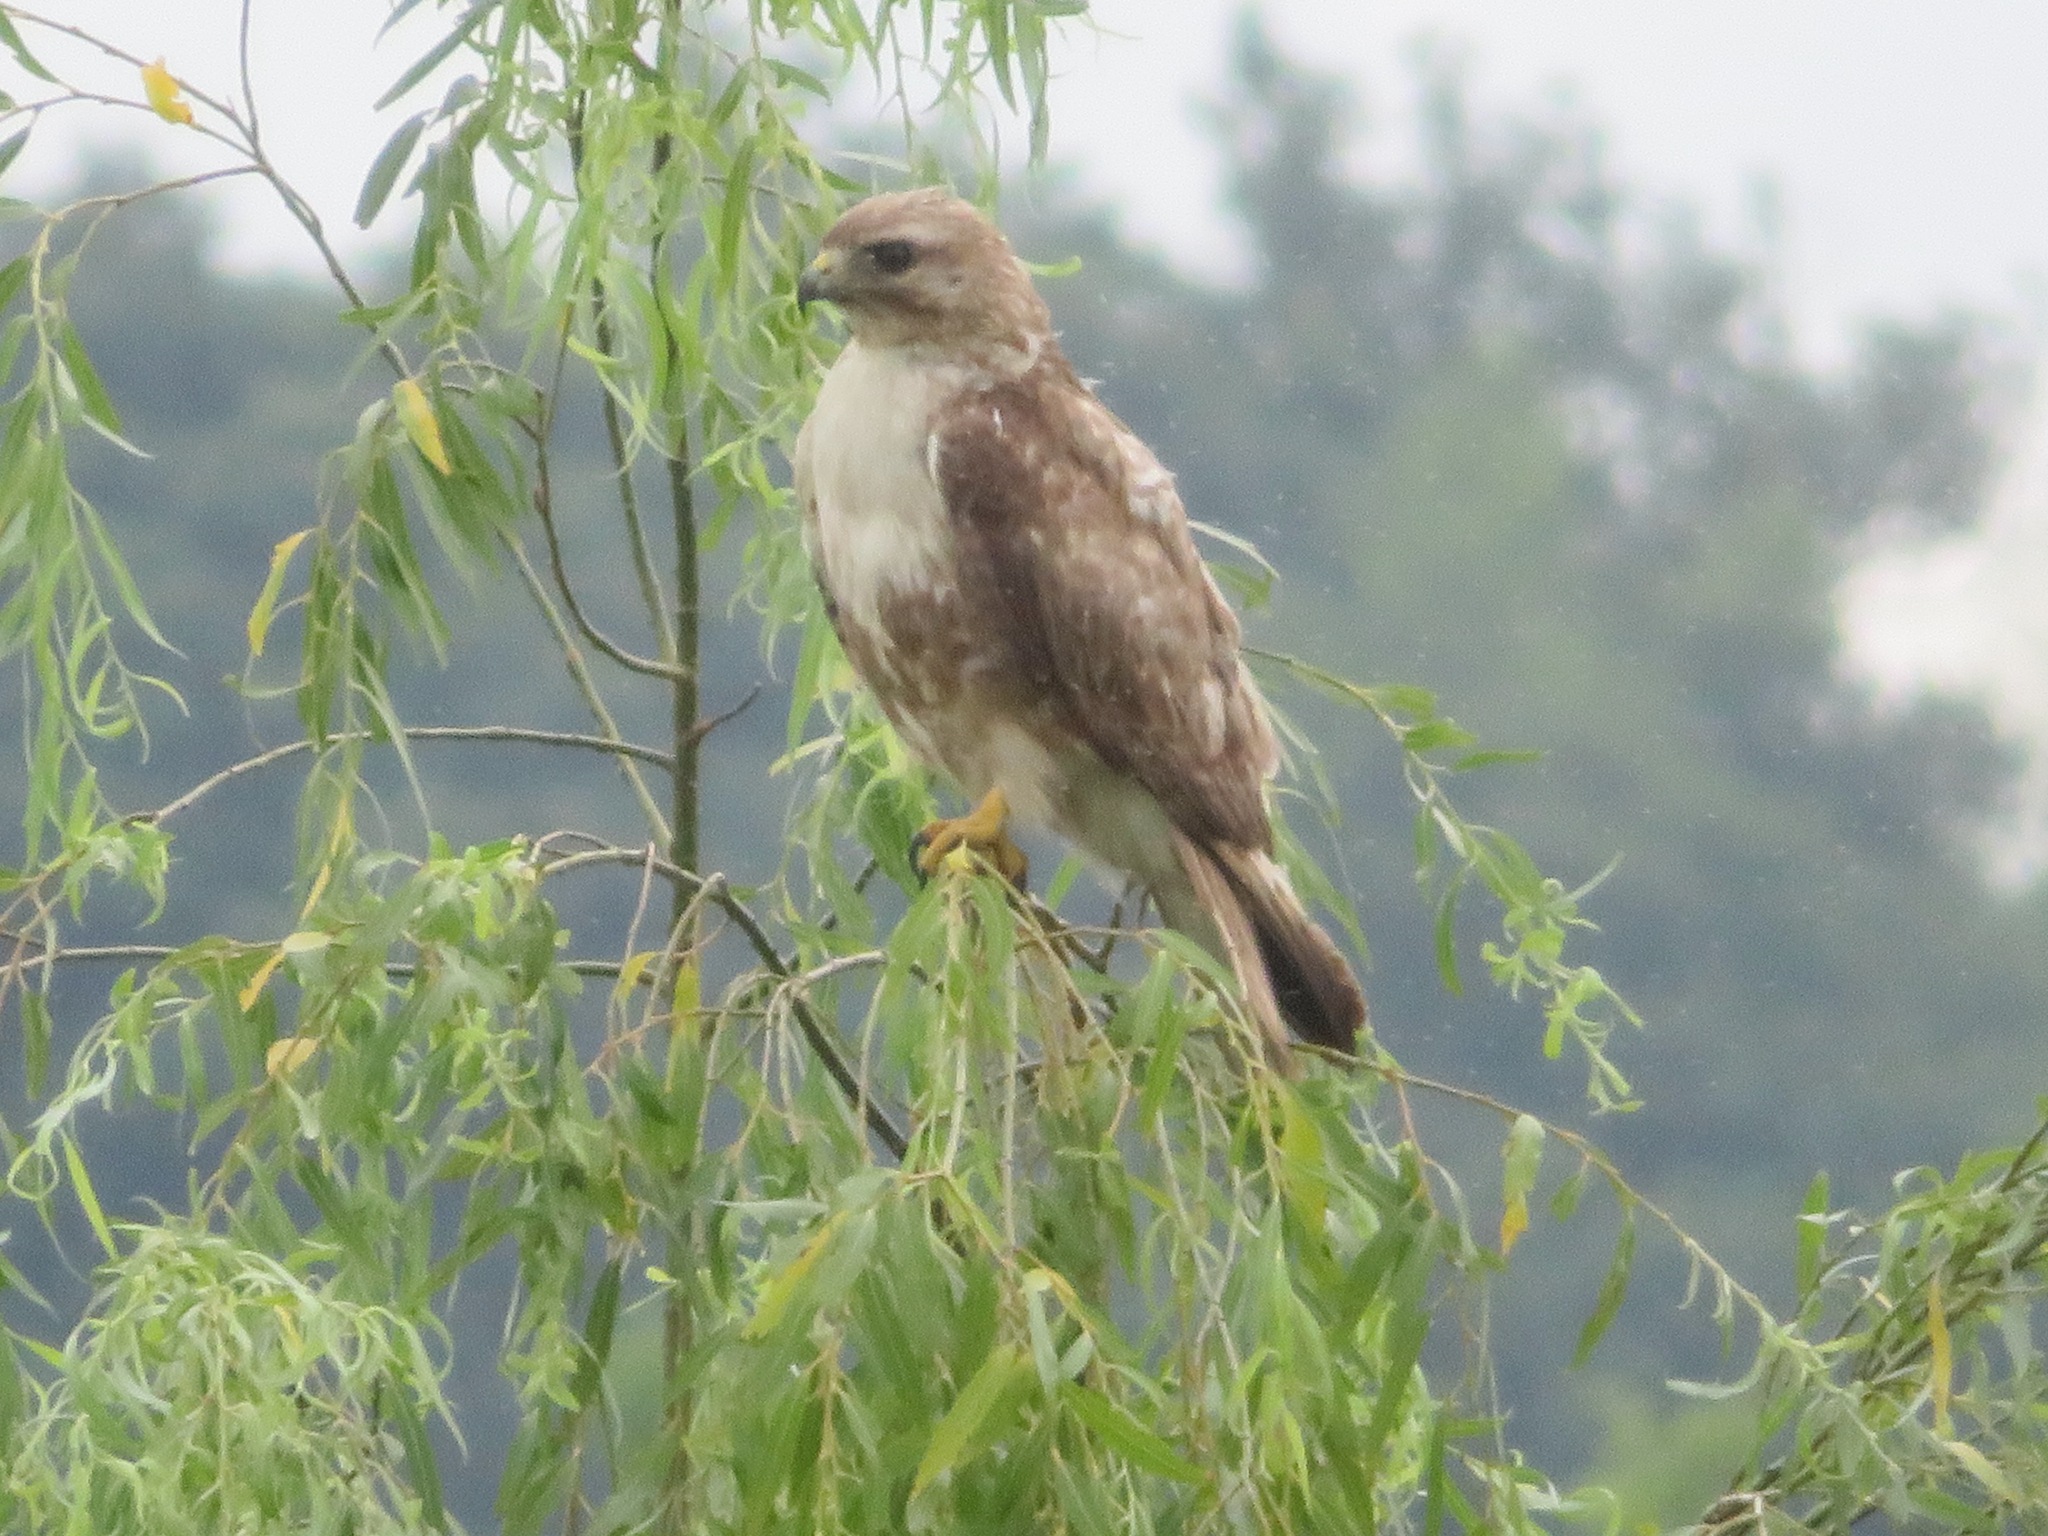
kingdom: Animalia
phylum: Chordata
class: Aves
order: Accipitriformes
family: Accipitridae
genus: Buteo
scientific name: Buteo japonicus
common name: Eastern buzzard
